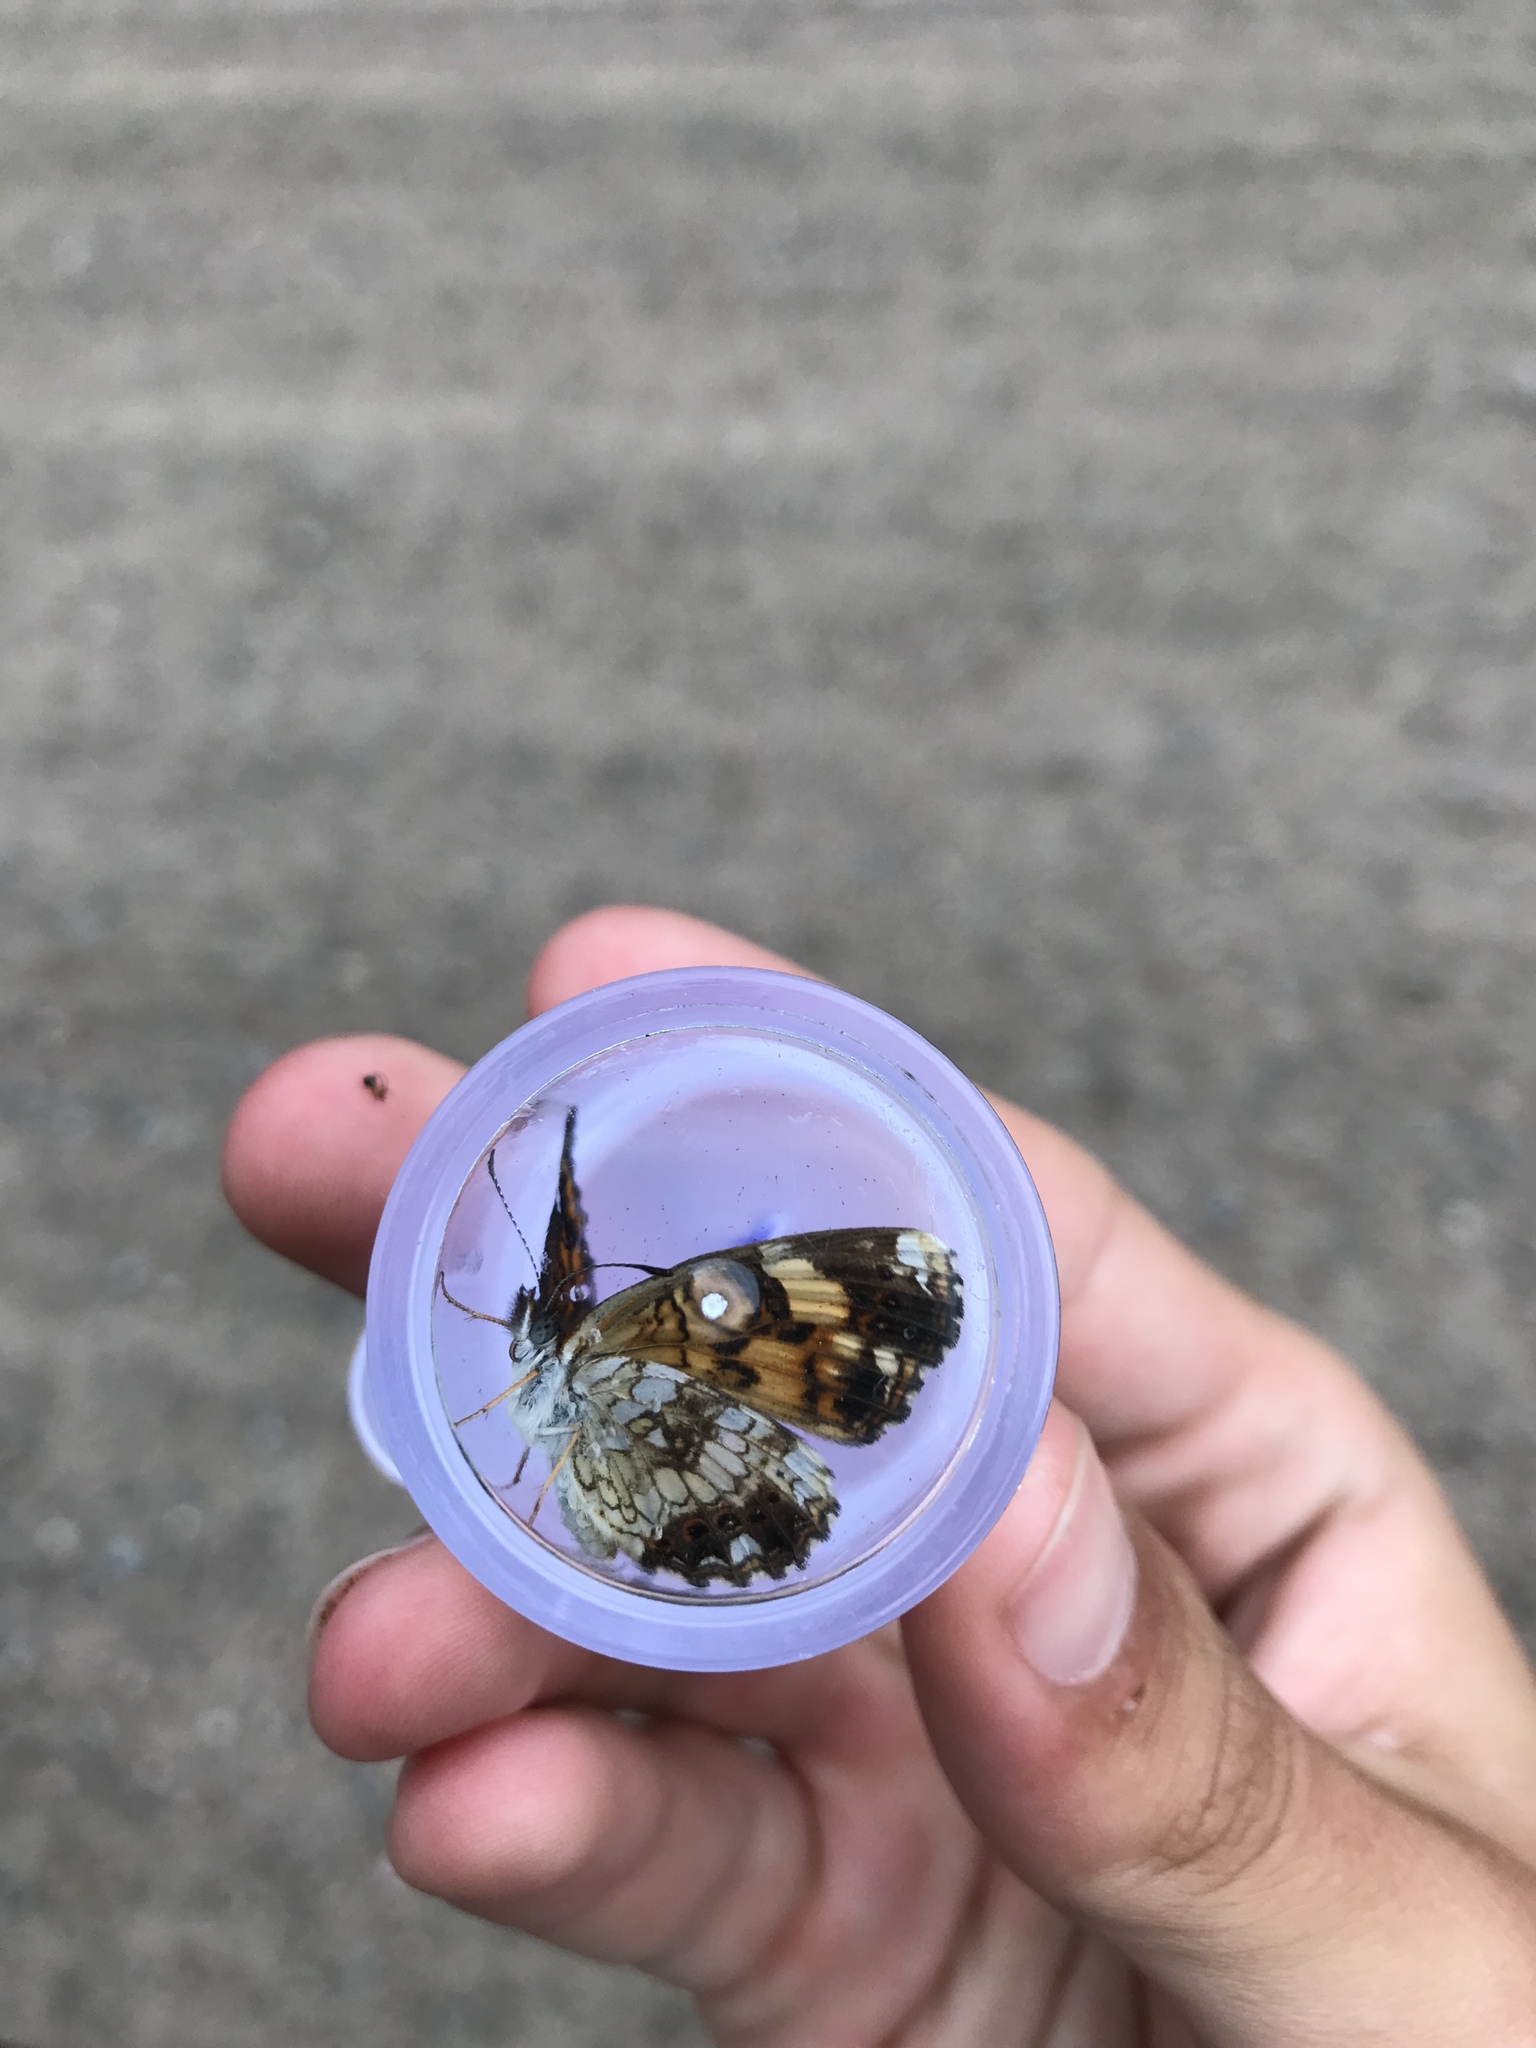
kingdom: Animalia
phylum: Arthropoda
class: Insecta
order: Lepidoptera
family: Nymphalidae
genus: Chlosyne
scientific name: Chlosyne nycteis
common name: Silvery checkerspot
